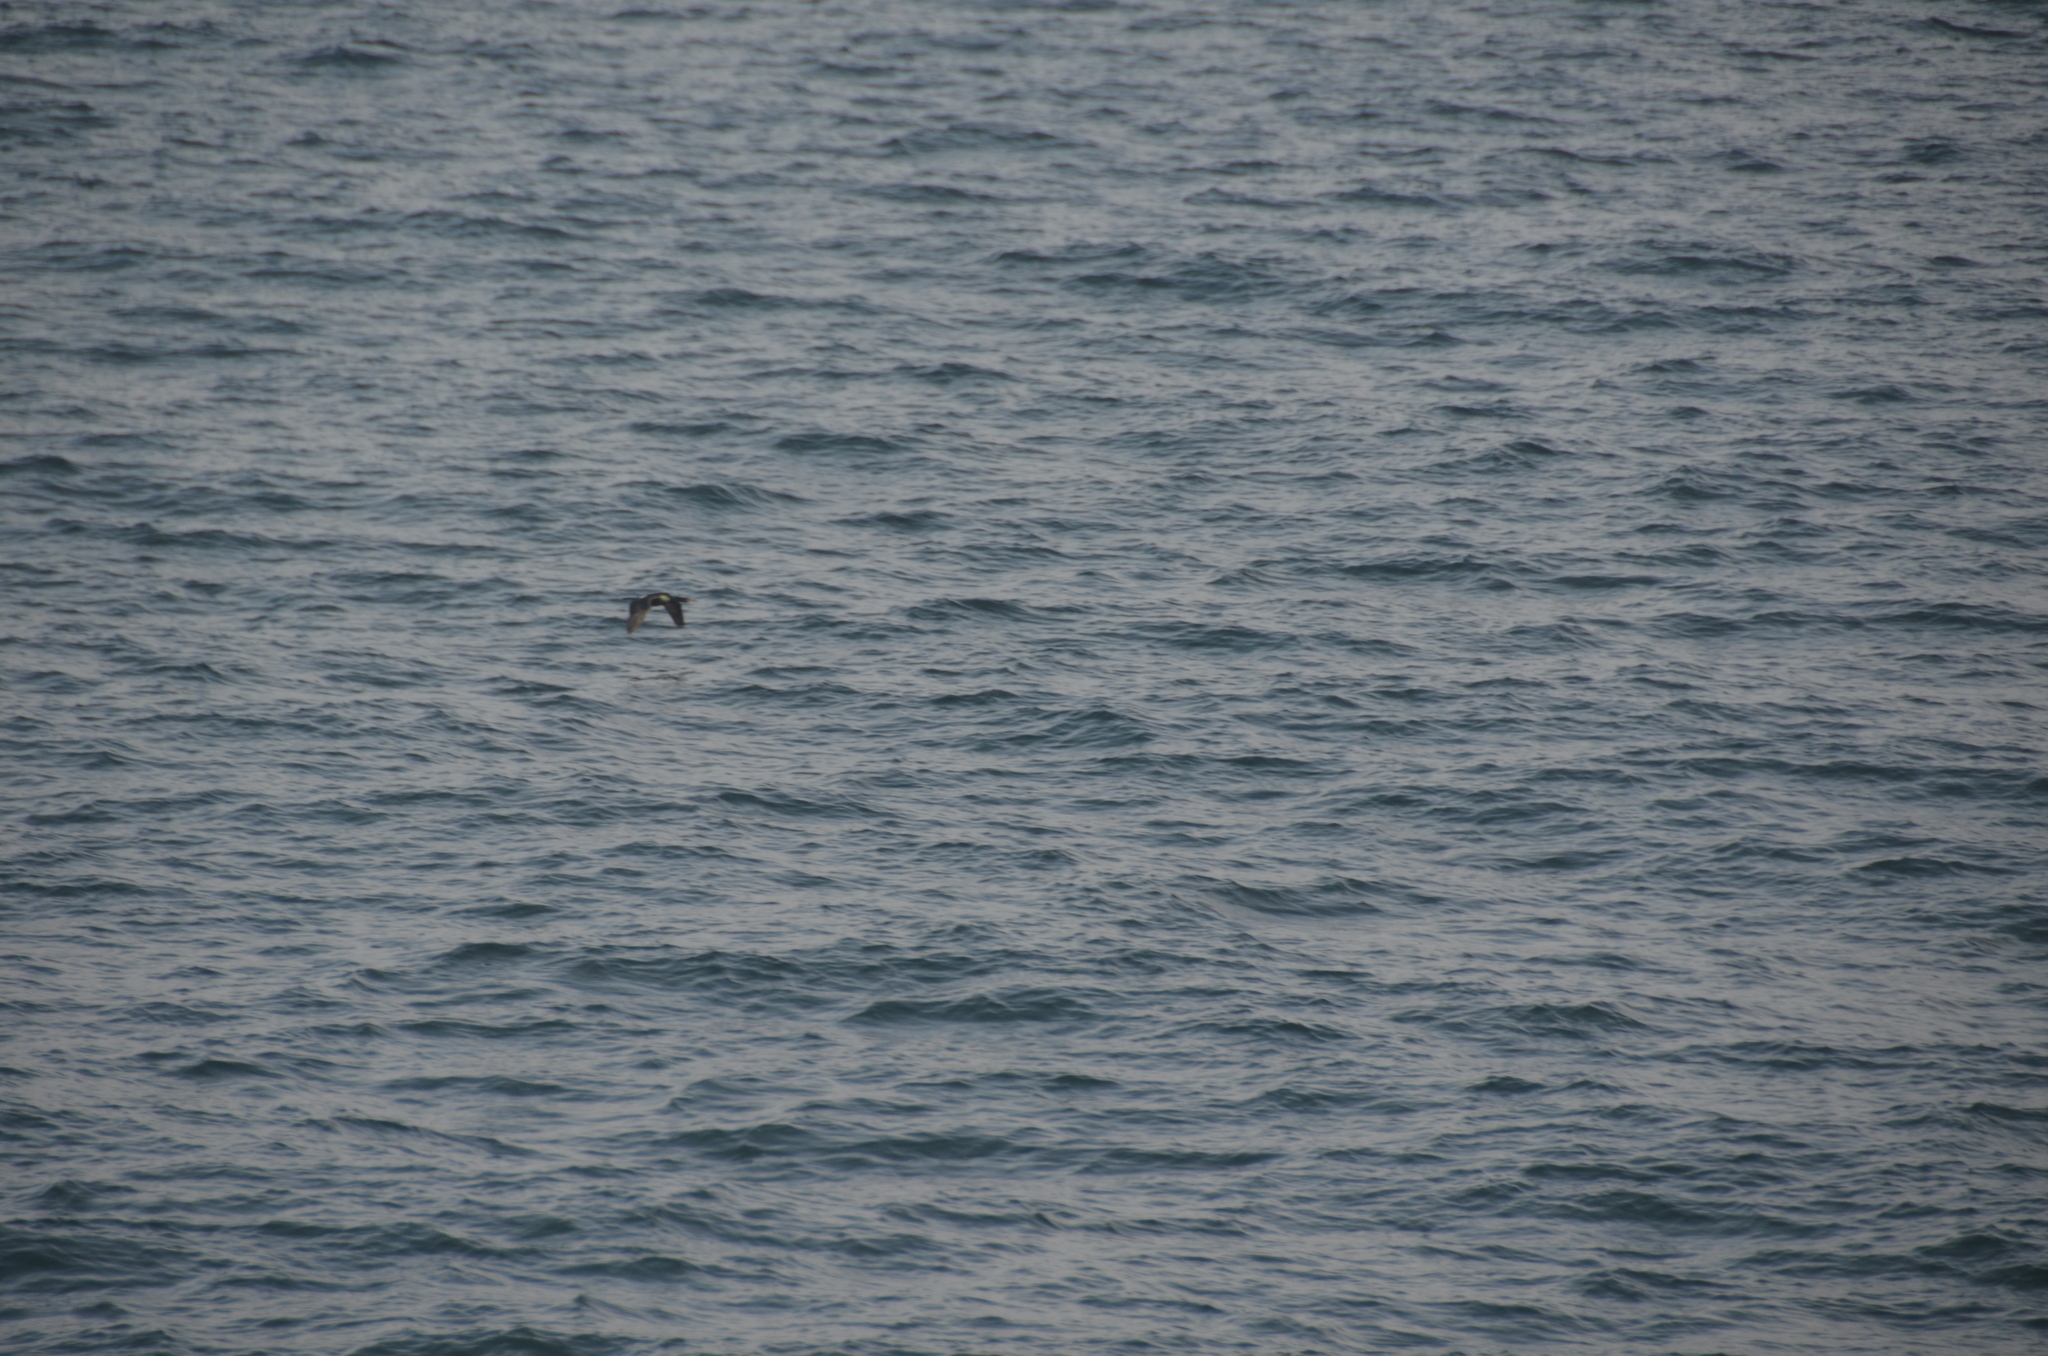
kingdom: Animalia
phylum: Chordata
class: Aves
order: Suliformes
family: Phalacrocoracidae
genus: Phalacrocorax
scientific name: Phalacrocorax pelagicus
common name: Pelagic cormorant
